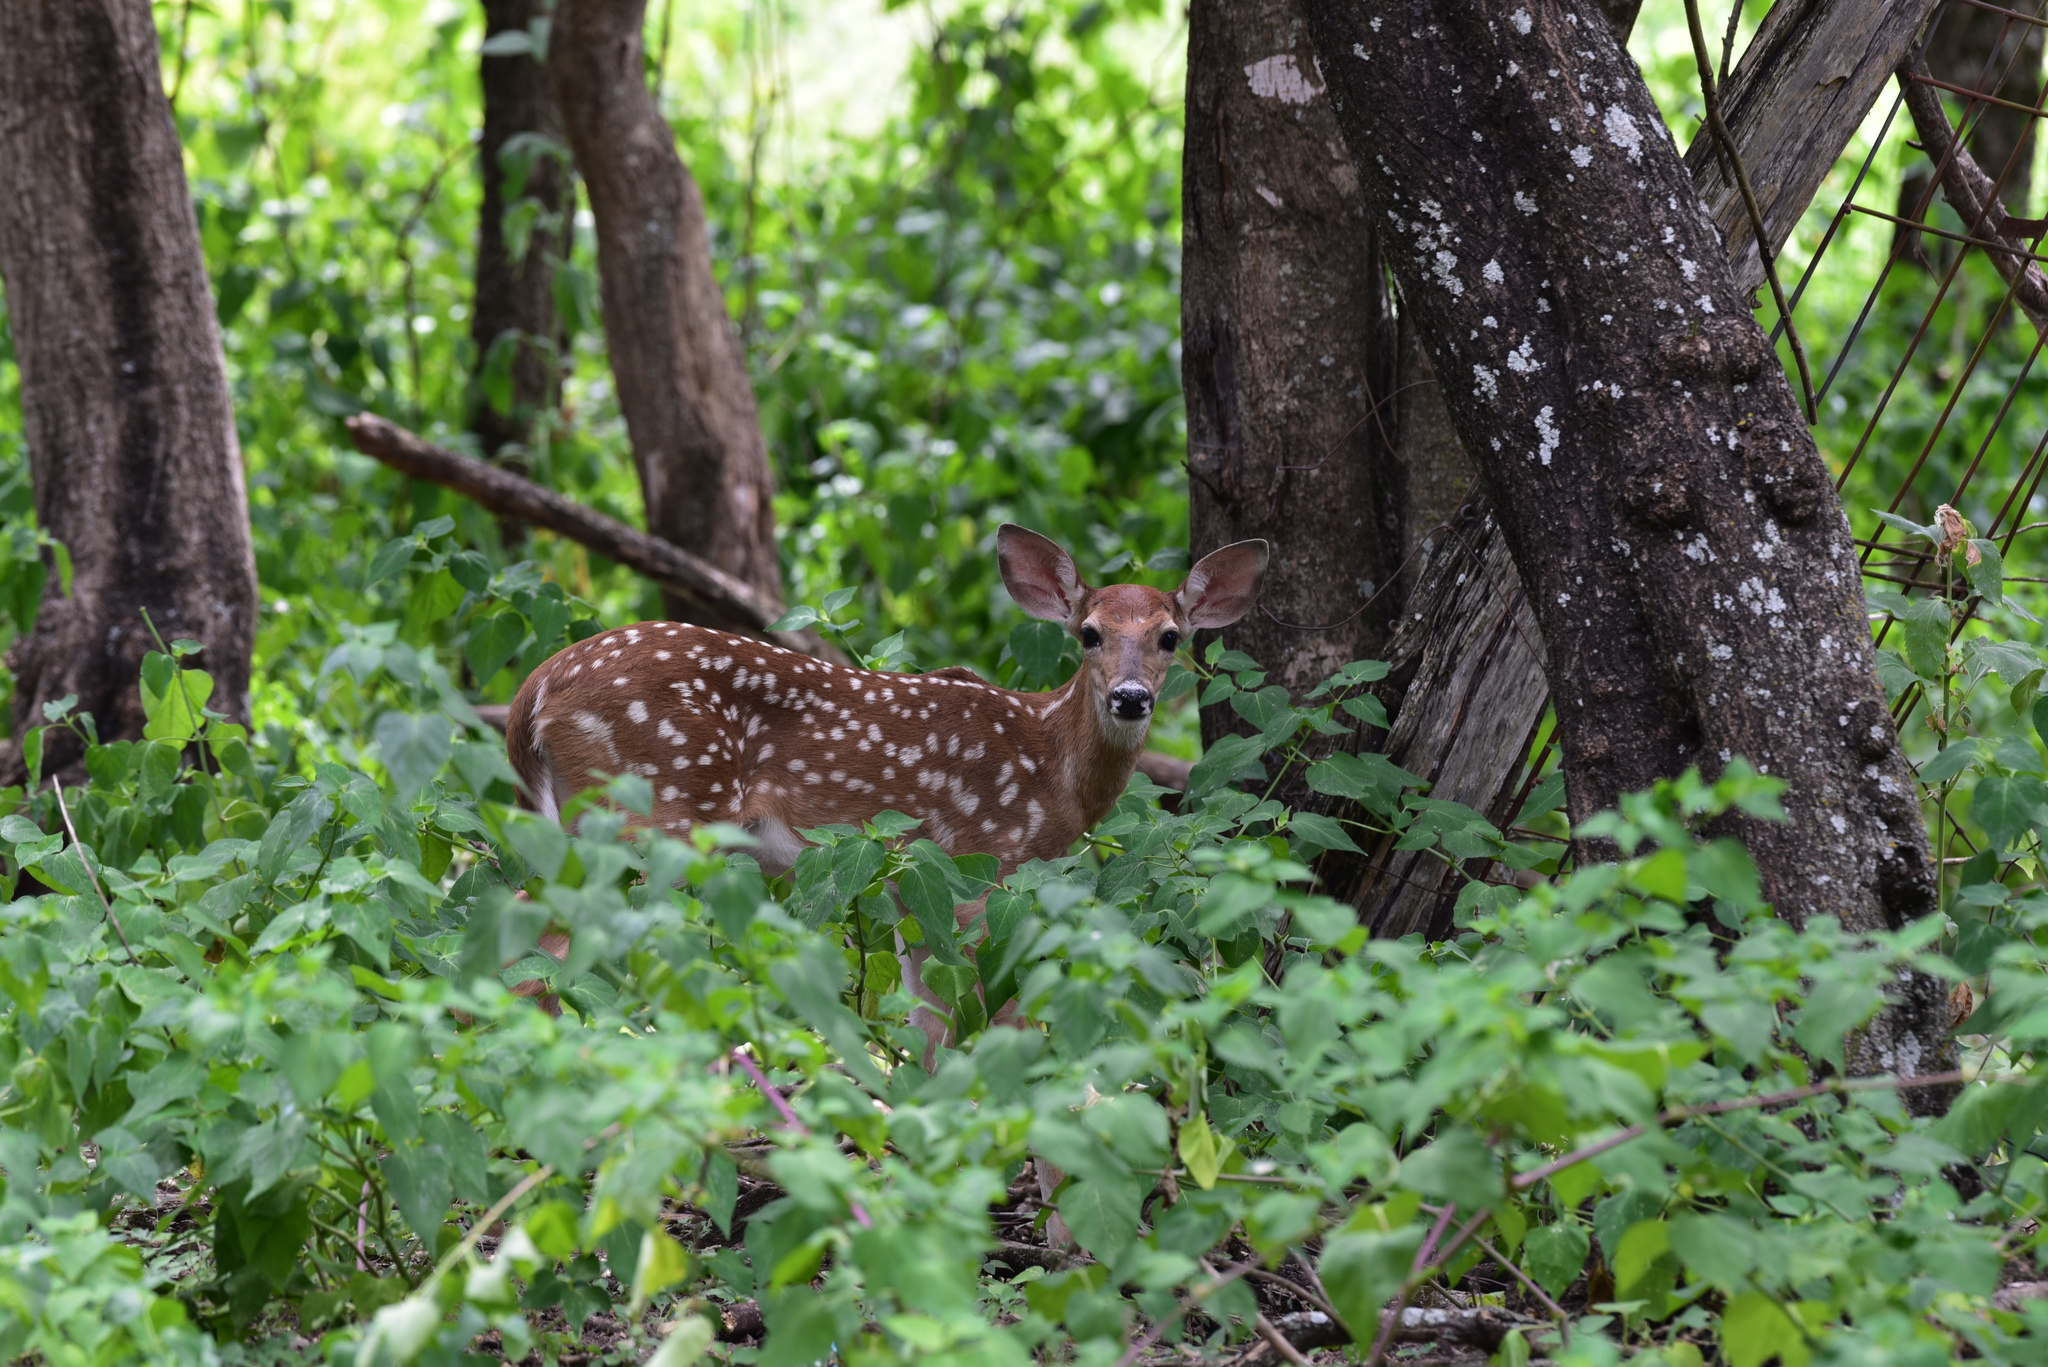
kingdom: Animalia
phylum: Chordata
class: Mammalia
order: Artiodactyla
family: Cervidae
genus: Odocoileus
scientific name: Odocoileus virginianus
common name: White-tailed deer
